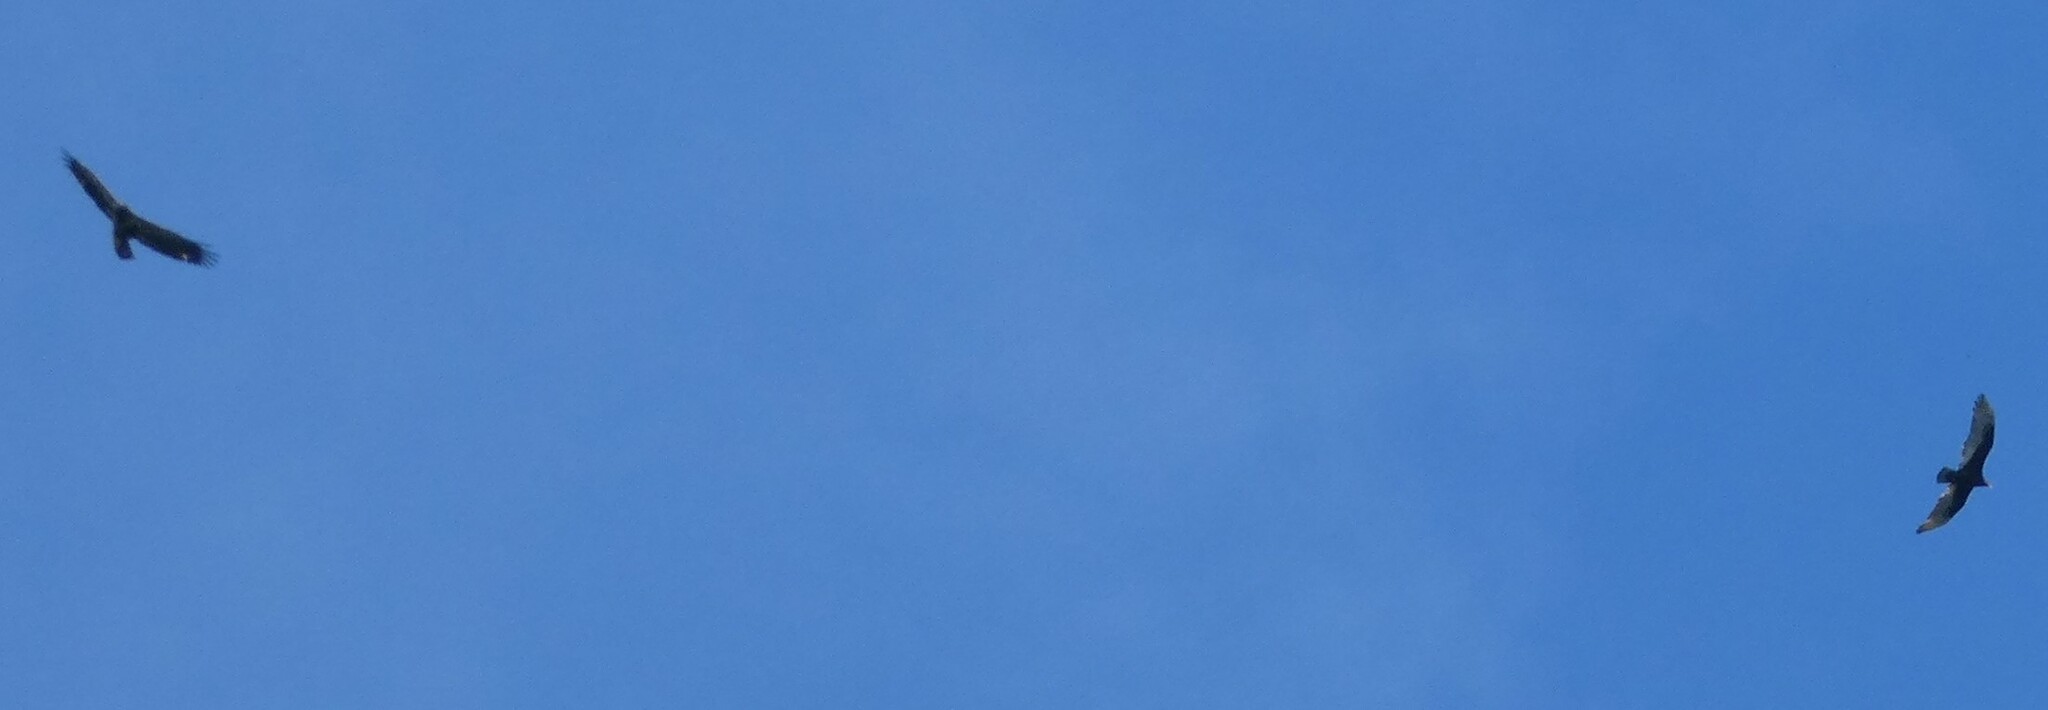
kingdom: Animalia
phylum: Chordata
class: Aves
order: Accipitriformes
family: Accipitridae
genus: Haliaeetus
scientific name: Haliaeetus leucocephalus
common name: Bald eagle
